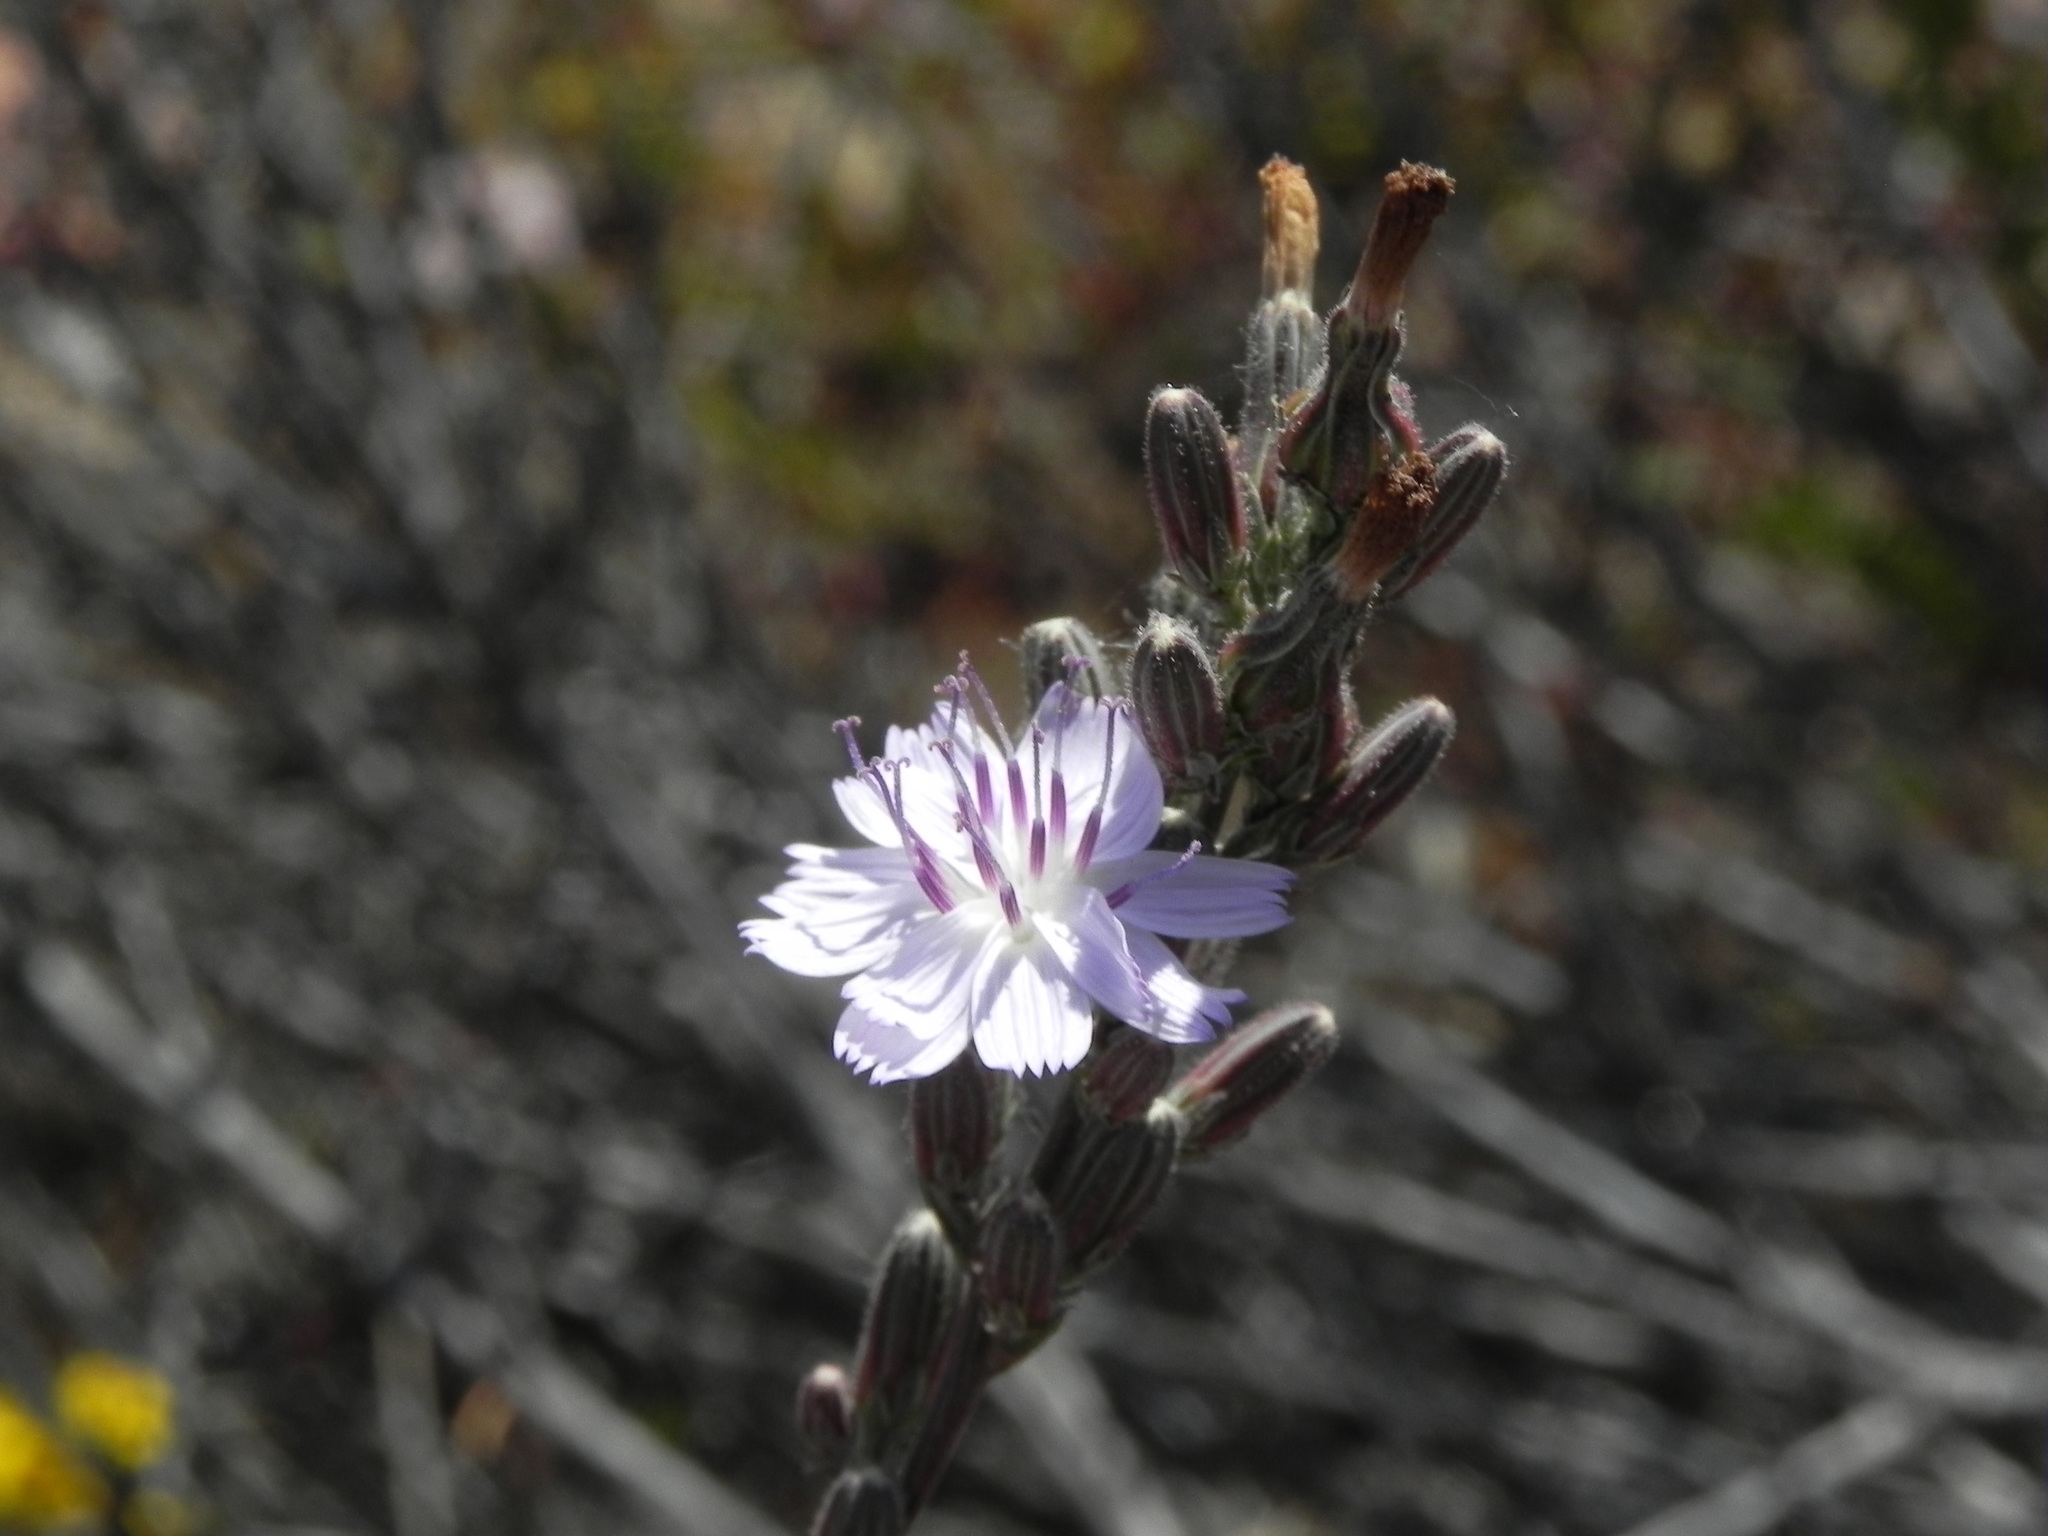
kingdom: Plantae
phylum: Tracheophyta
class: Magnoliopsida
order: Asterales
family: Asteraceae
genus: Stephanomeria
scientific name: Stephanomeria diegensis
